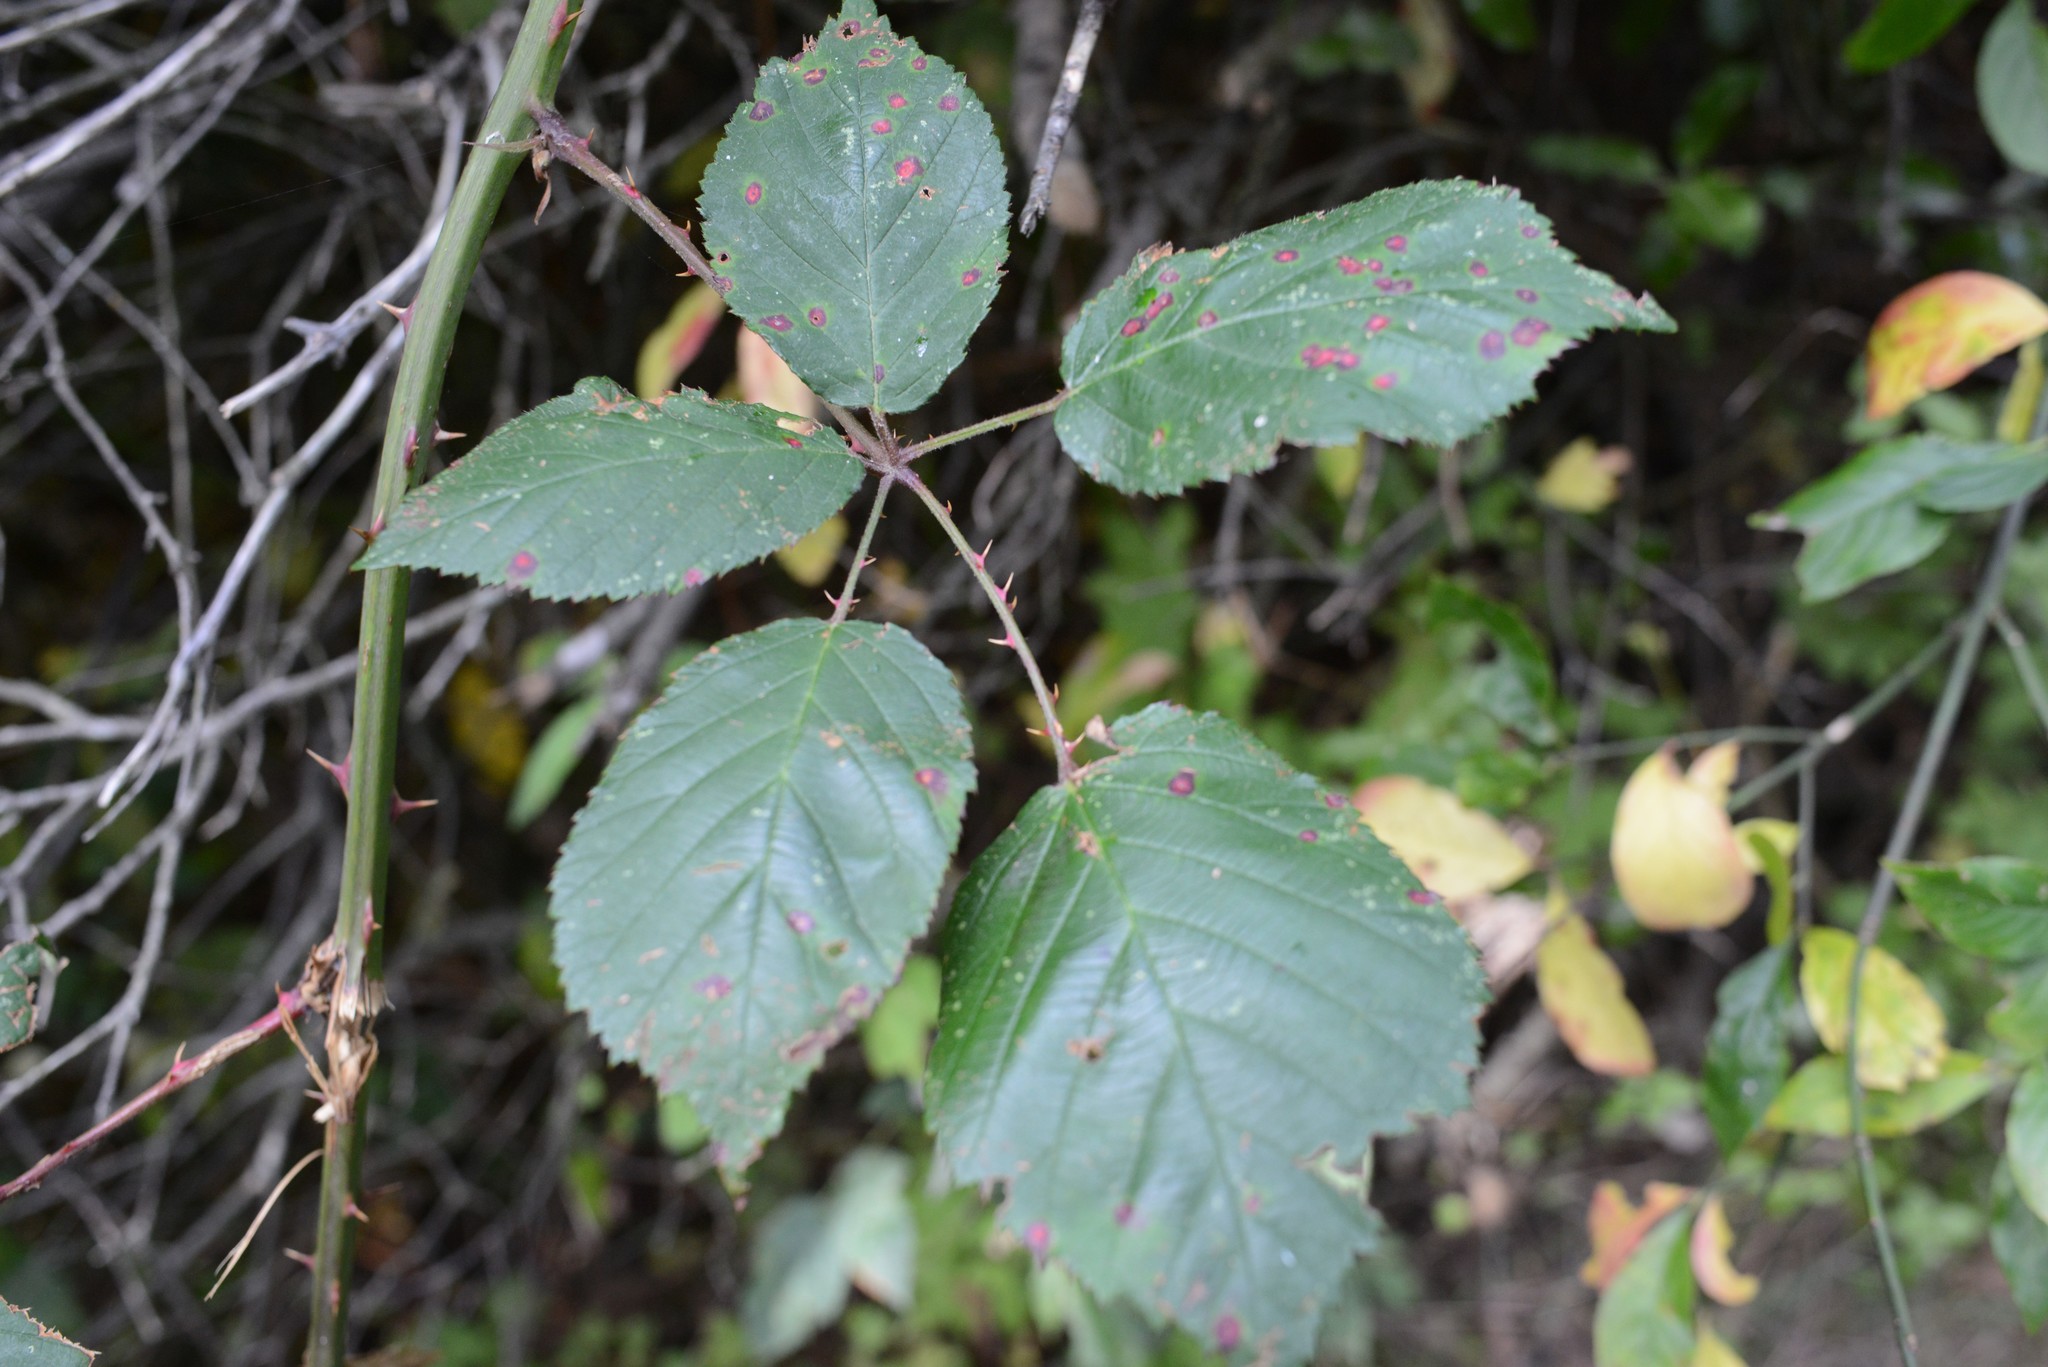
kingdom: Plantae
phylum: Tracheophyta
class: Magnoliopsida
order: Rosales
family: Rosaceae
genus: Rubus
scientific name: Rubus
